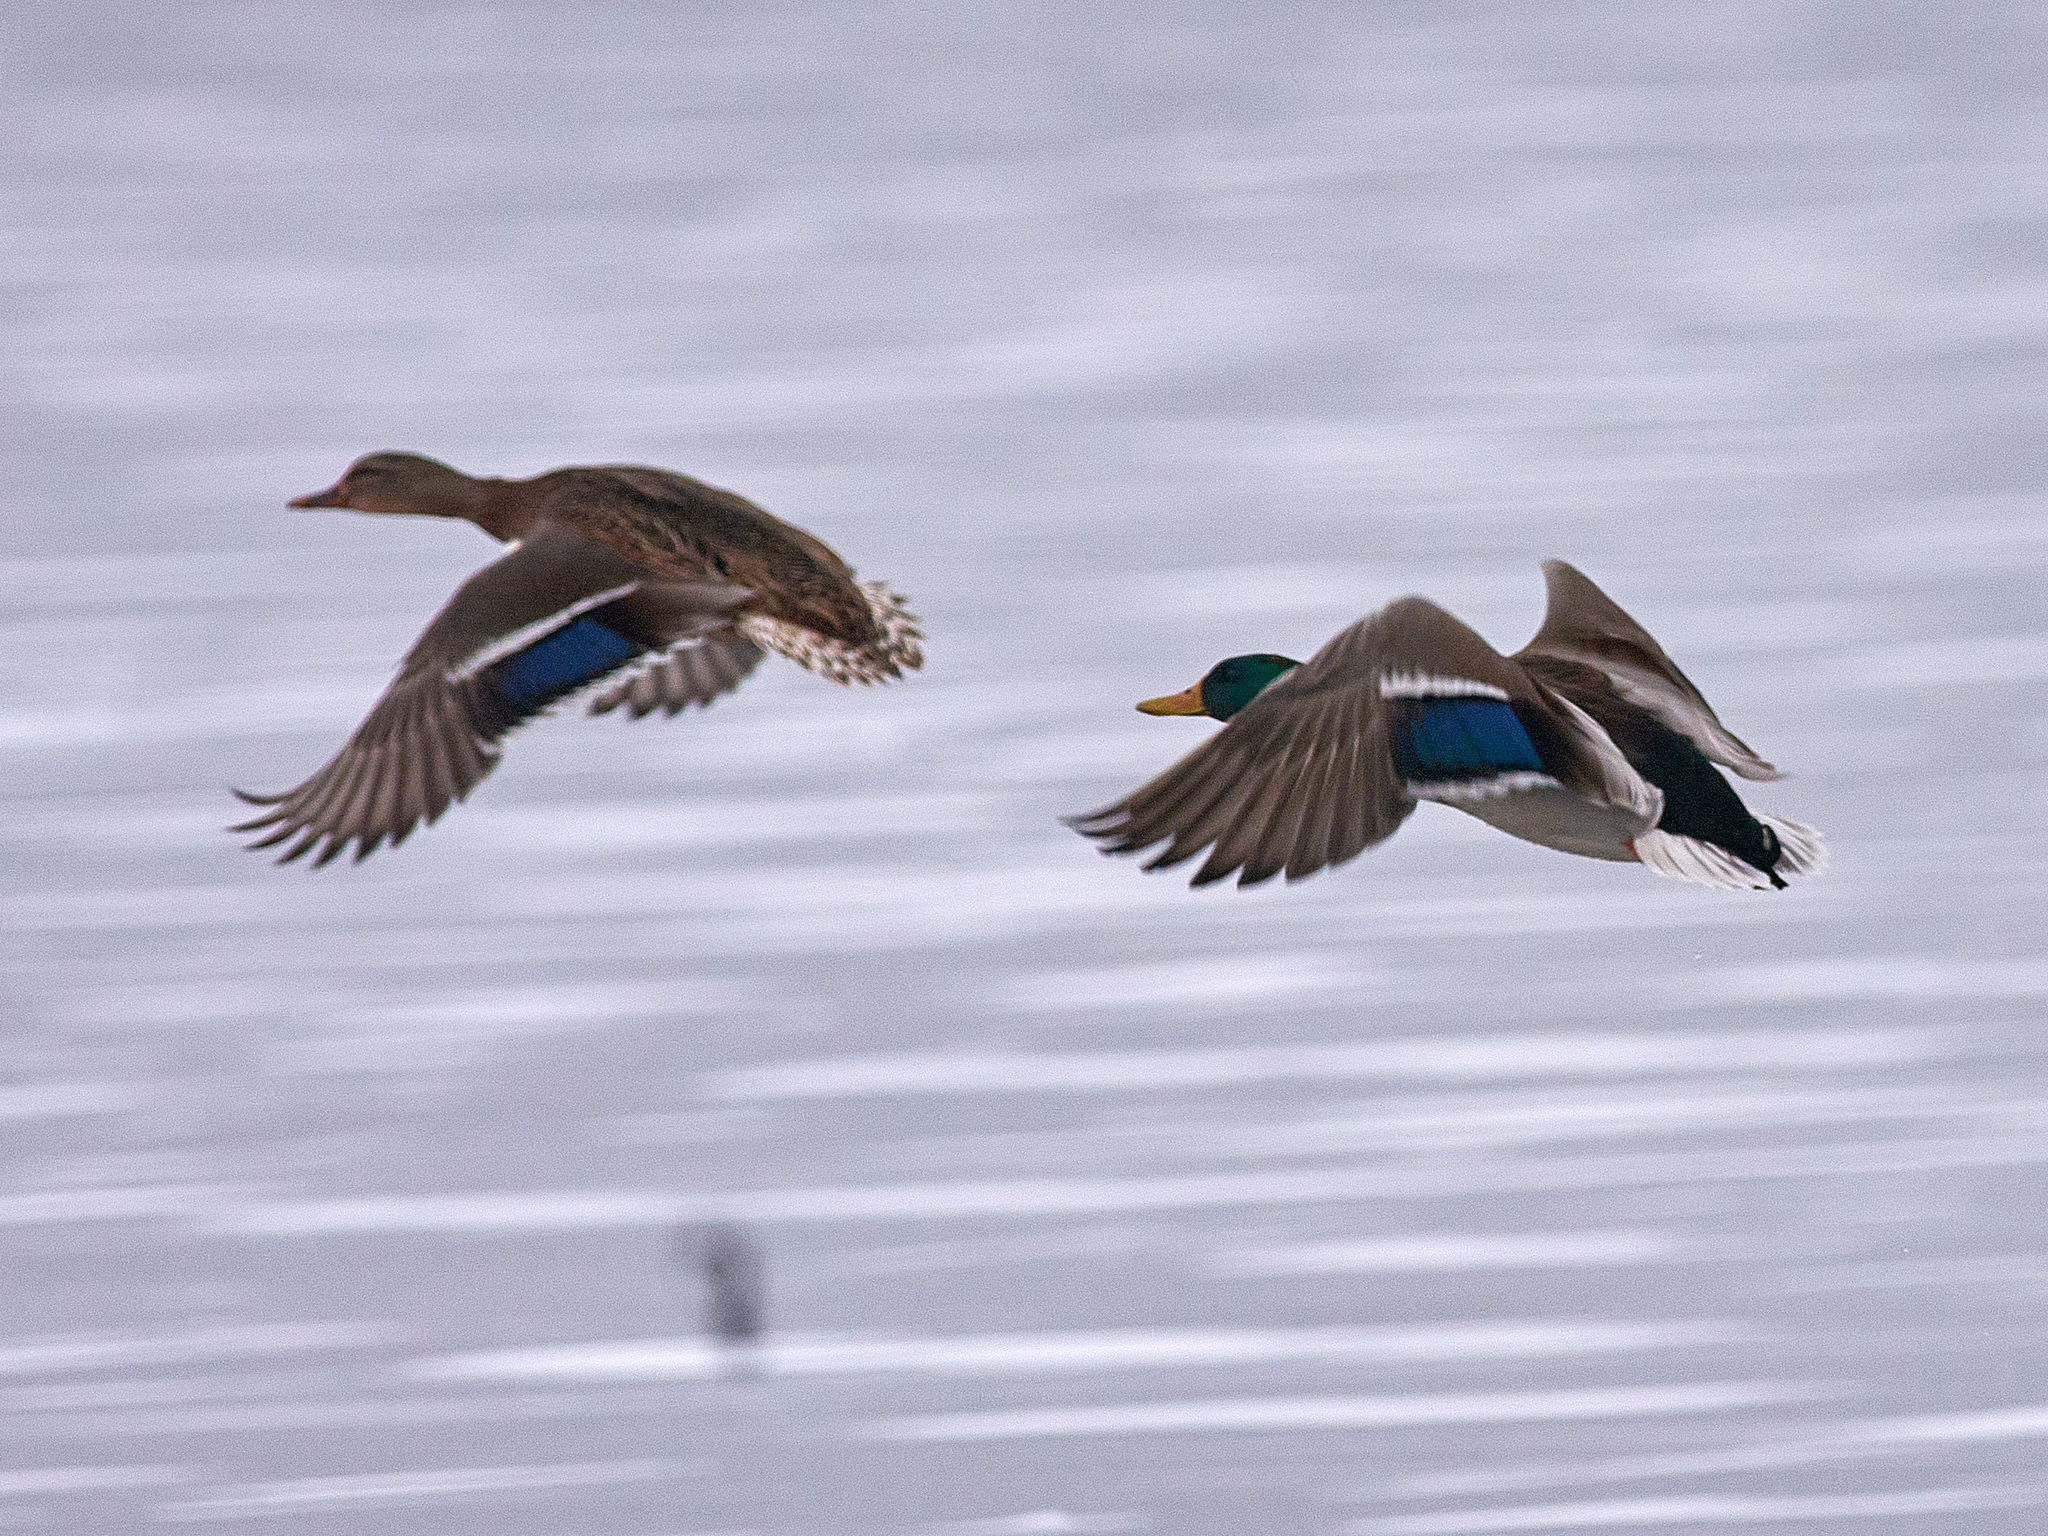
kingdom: Animalia
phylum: Chordata
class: Aves
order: Anseriformes
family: Anatidae
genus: Anas
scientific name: Anas platyrhynchos
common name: Mallard
